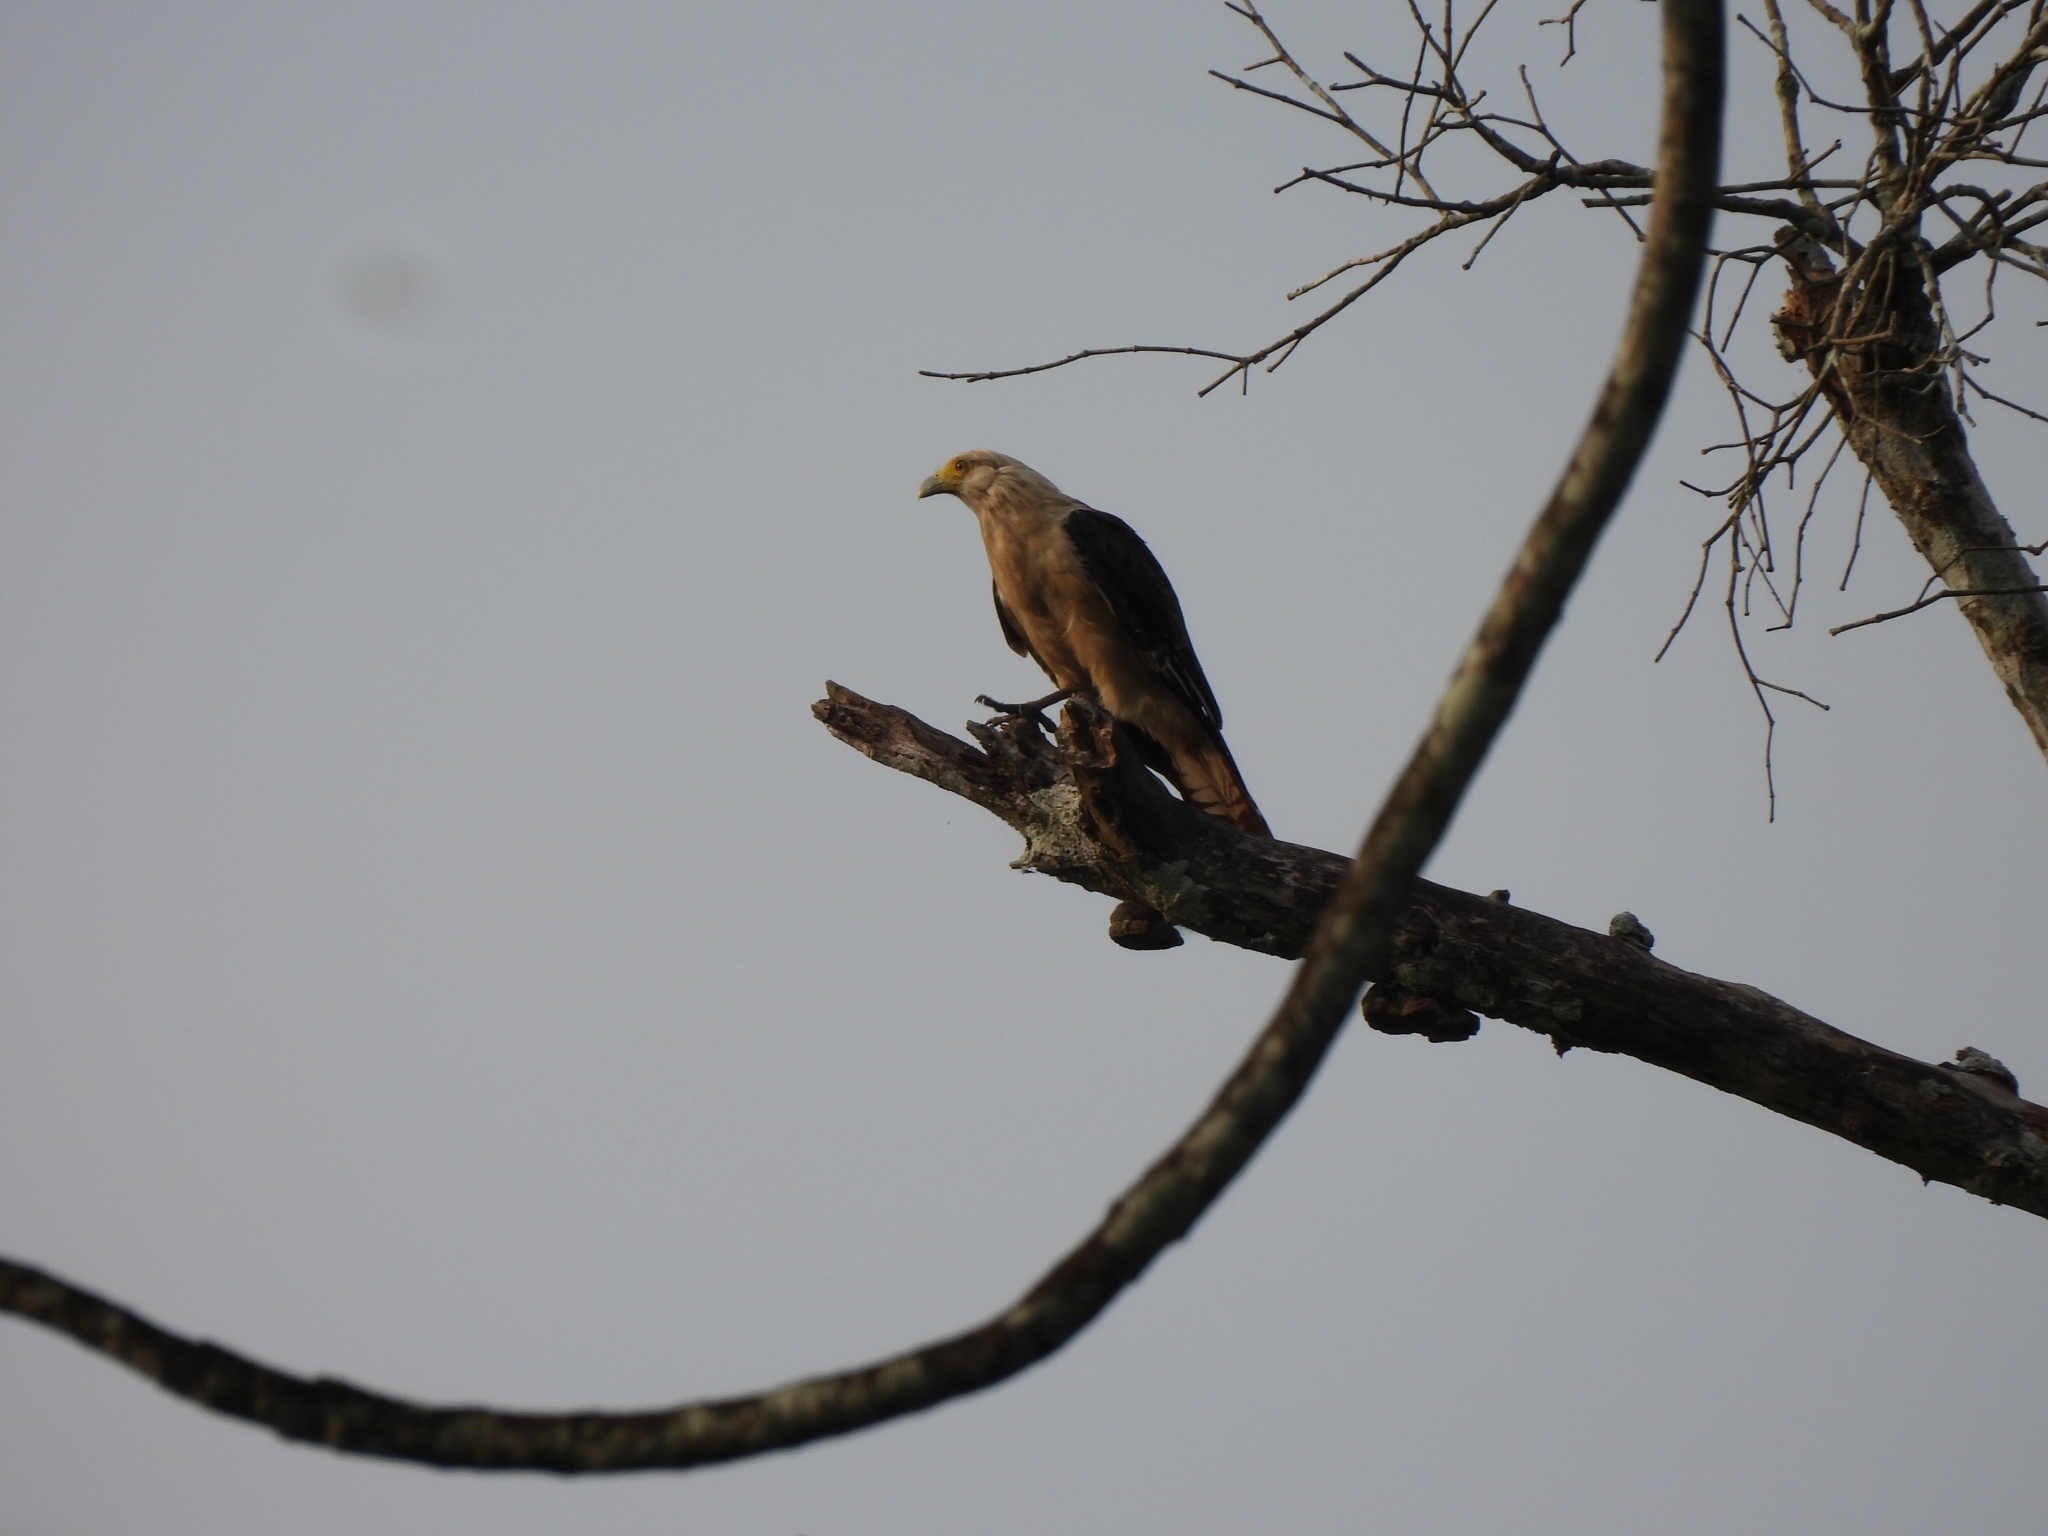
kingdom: Animalia
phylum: Chordata
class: Aves
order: Falconiformes
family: Falconidae
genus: Daptrius
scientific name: Daptrius
